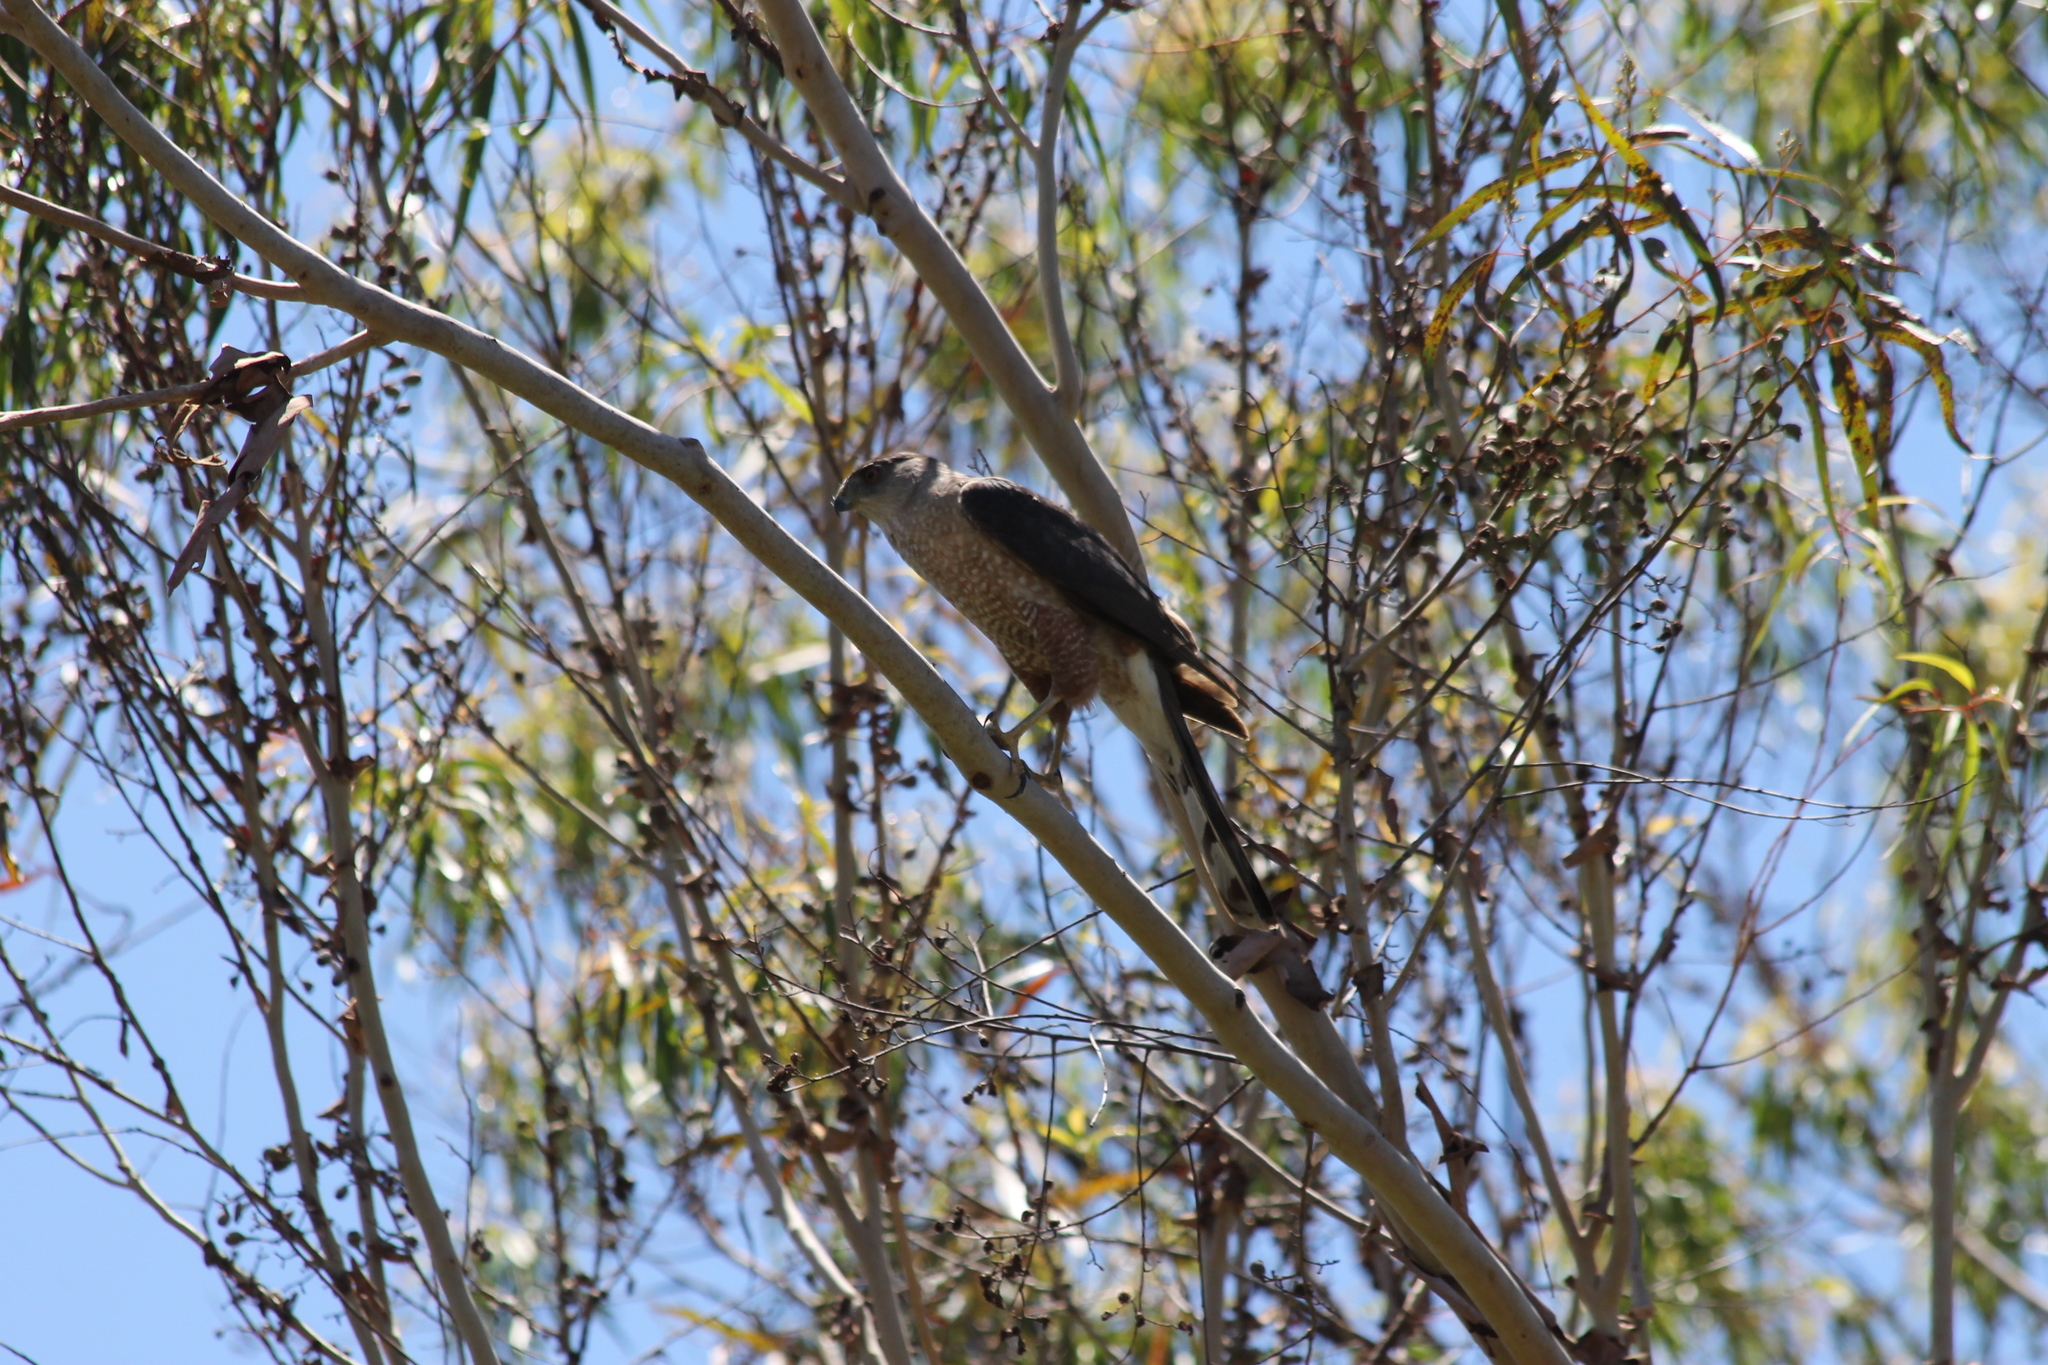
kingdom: Animalia
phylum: Chordata
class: Aves
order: Accipitriformes
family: Accipitridae
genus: Accipiter
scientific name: Accipiter cooperii
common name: Cooper's hawk
